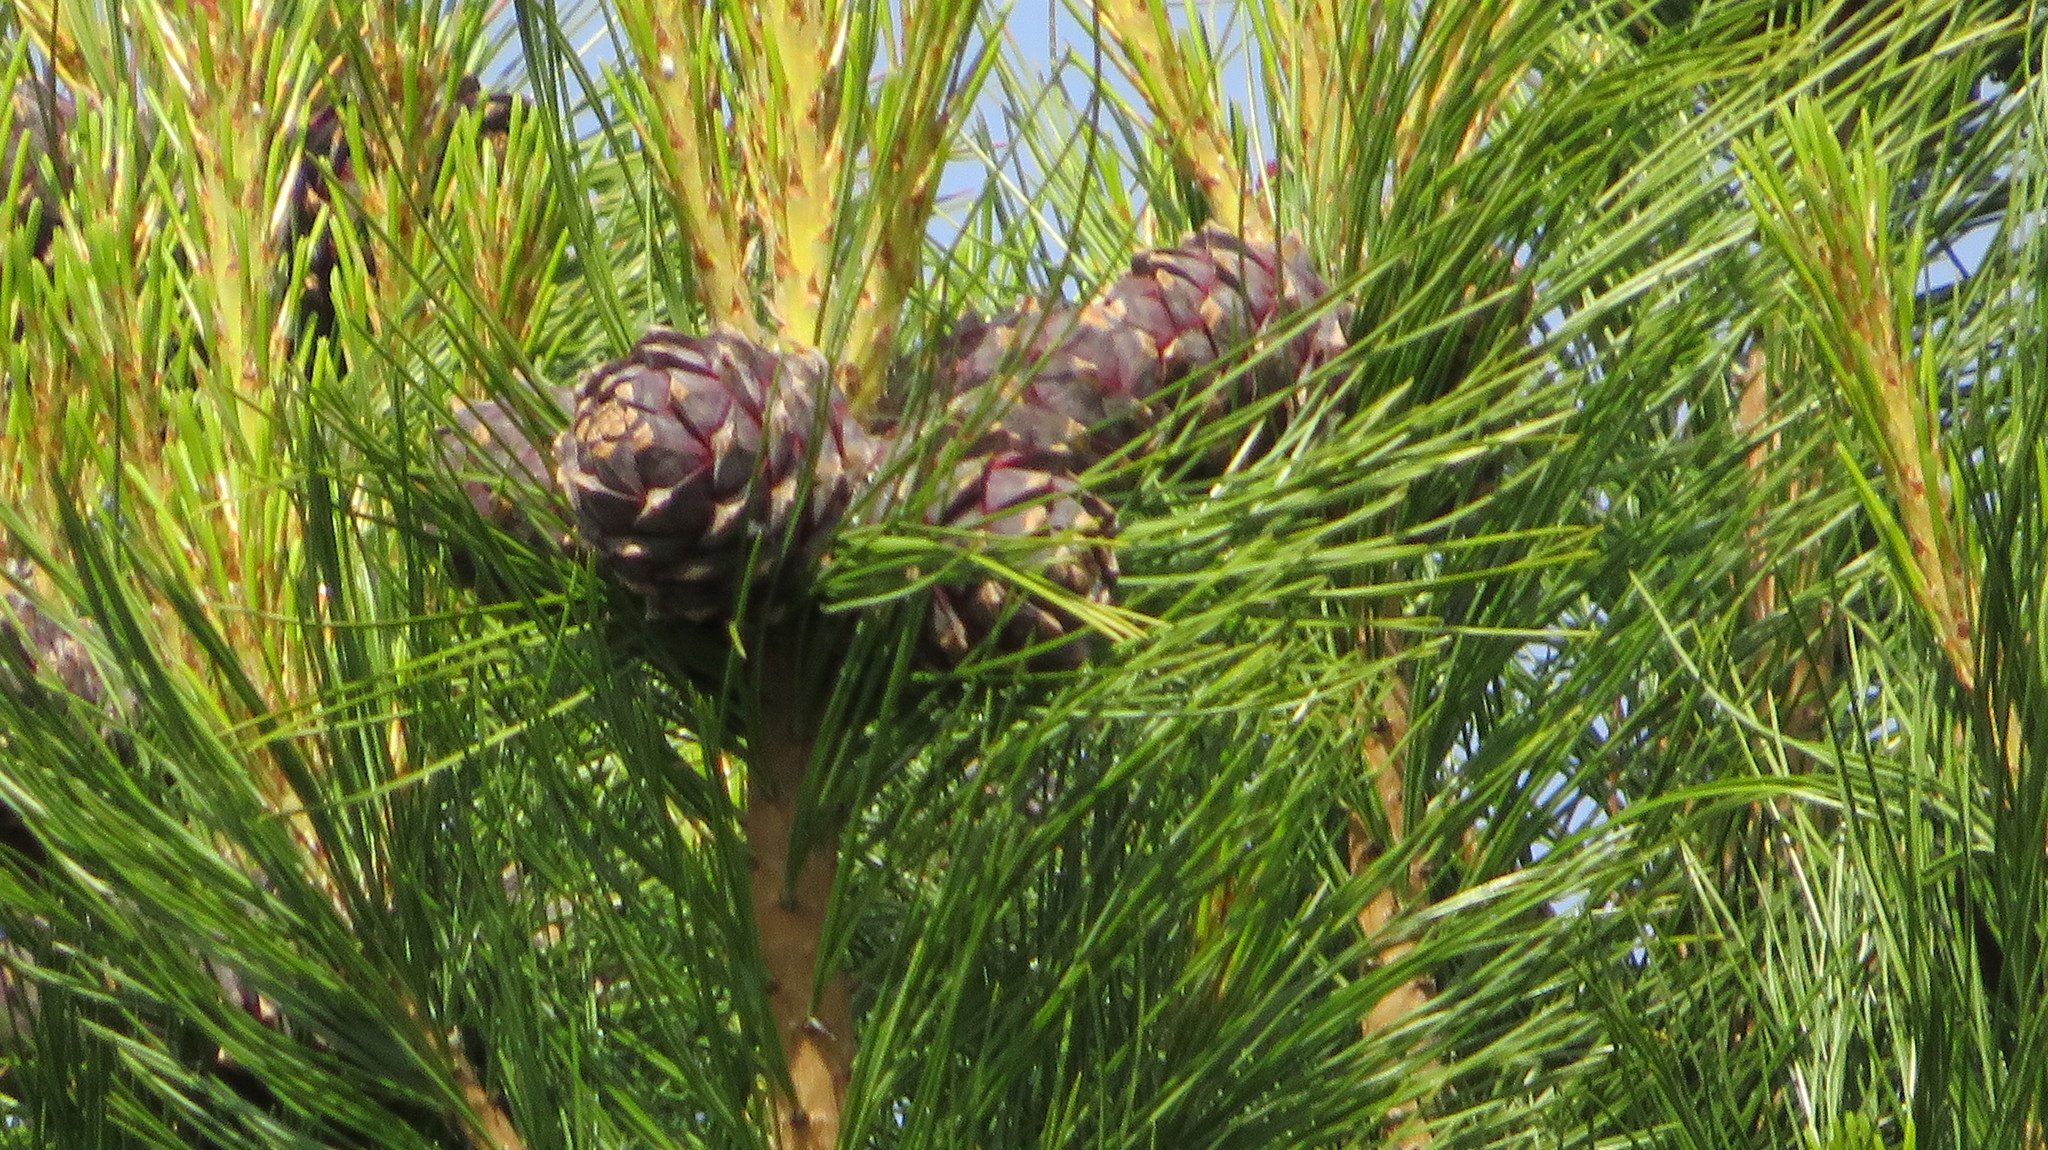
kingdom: Plantae
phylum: Tracheophyta
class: Pinopsida
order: Pinales
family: Pinaceae
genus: Pinus
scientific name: Pinus sibirica
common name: Siberian pine
